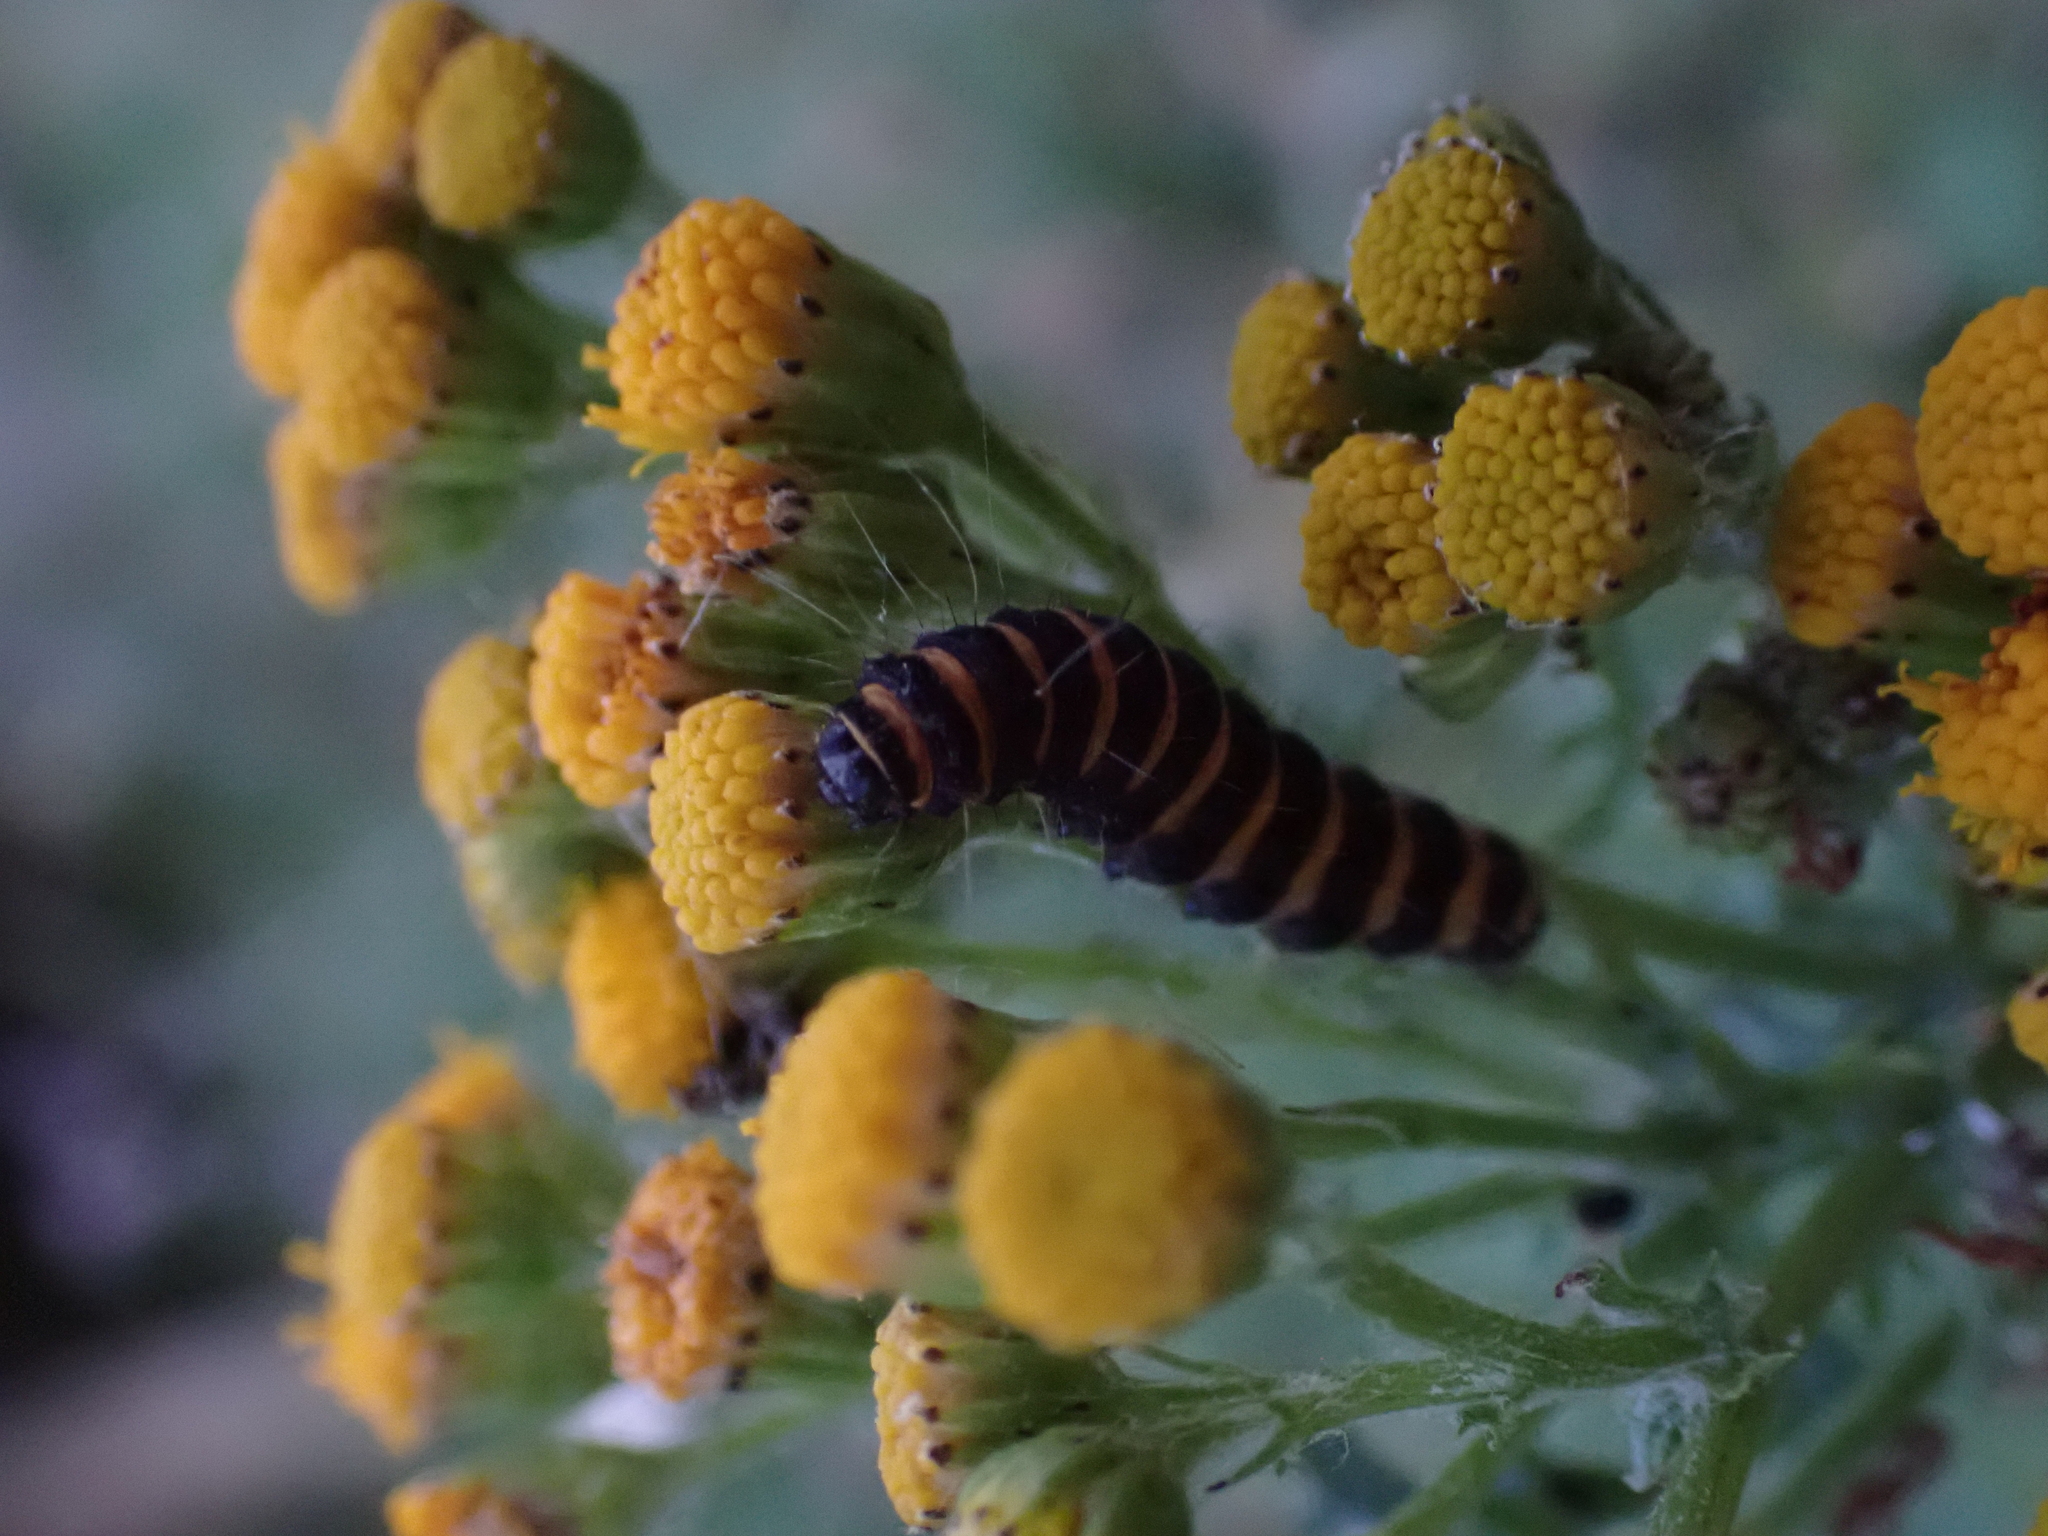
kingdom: Animalia
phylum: Arthropoda
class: Insecta
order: Lepidoptera
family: Erebidae
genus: Tyria
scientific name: Tyria jacobaeae
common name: Cinnabar
